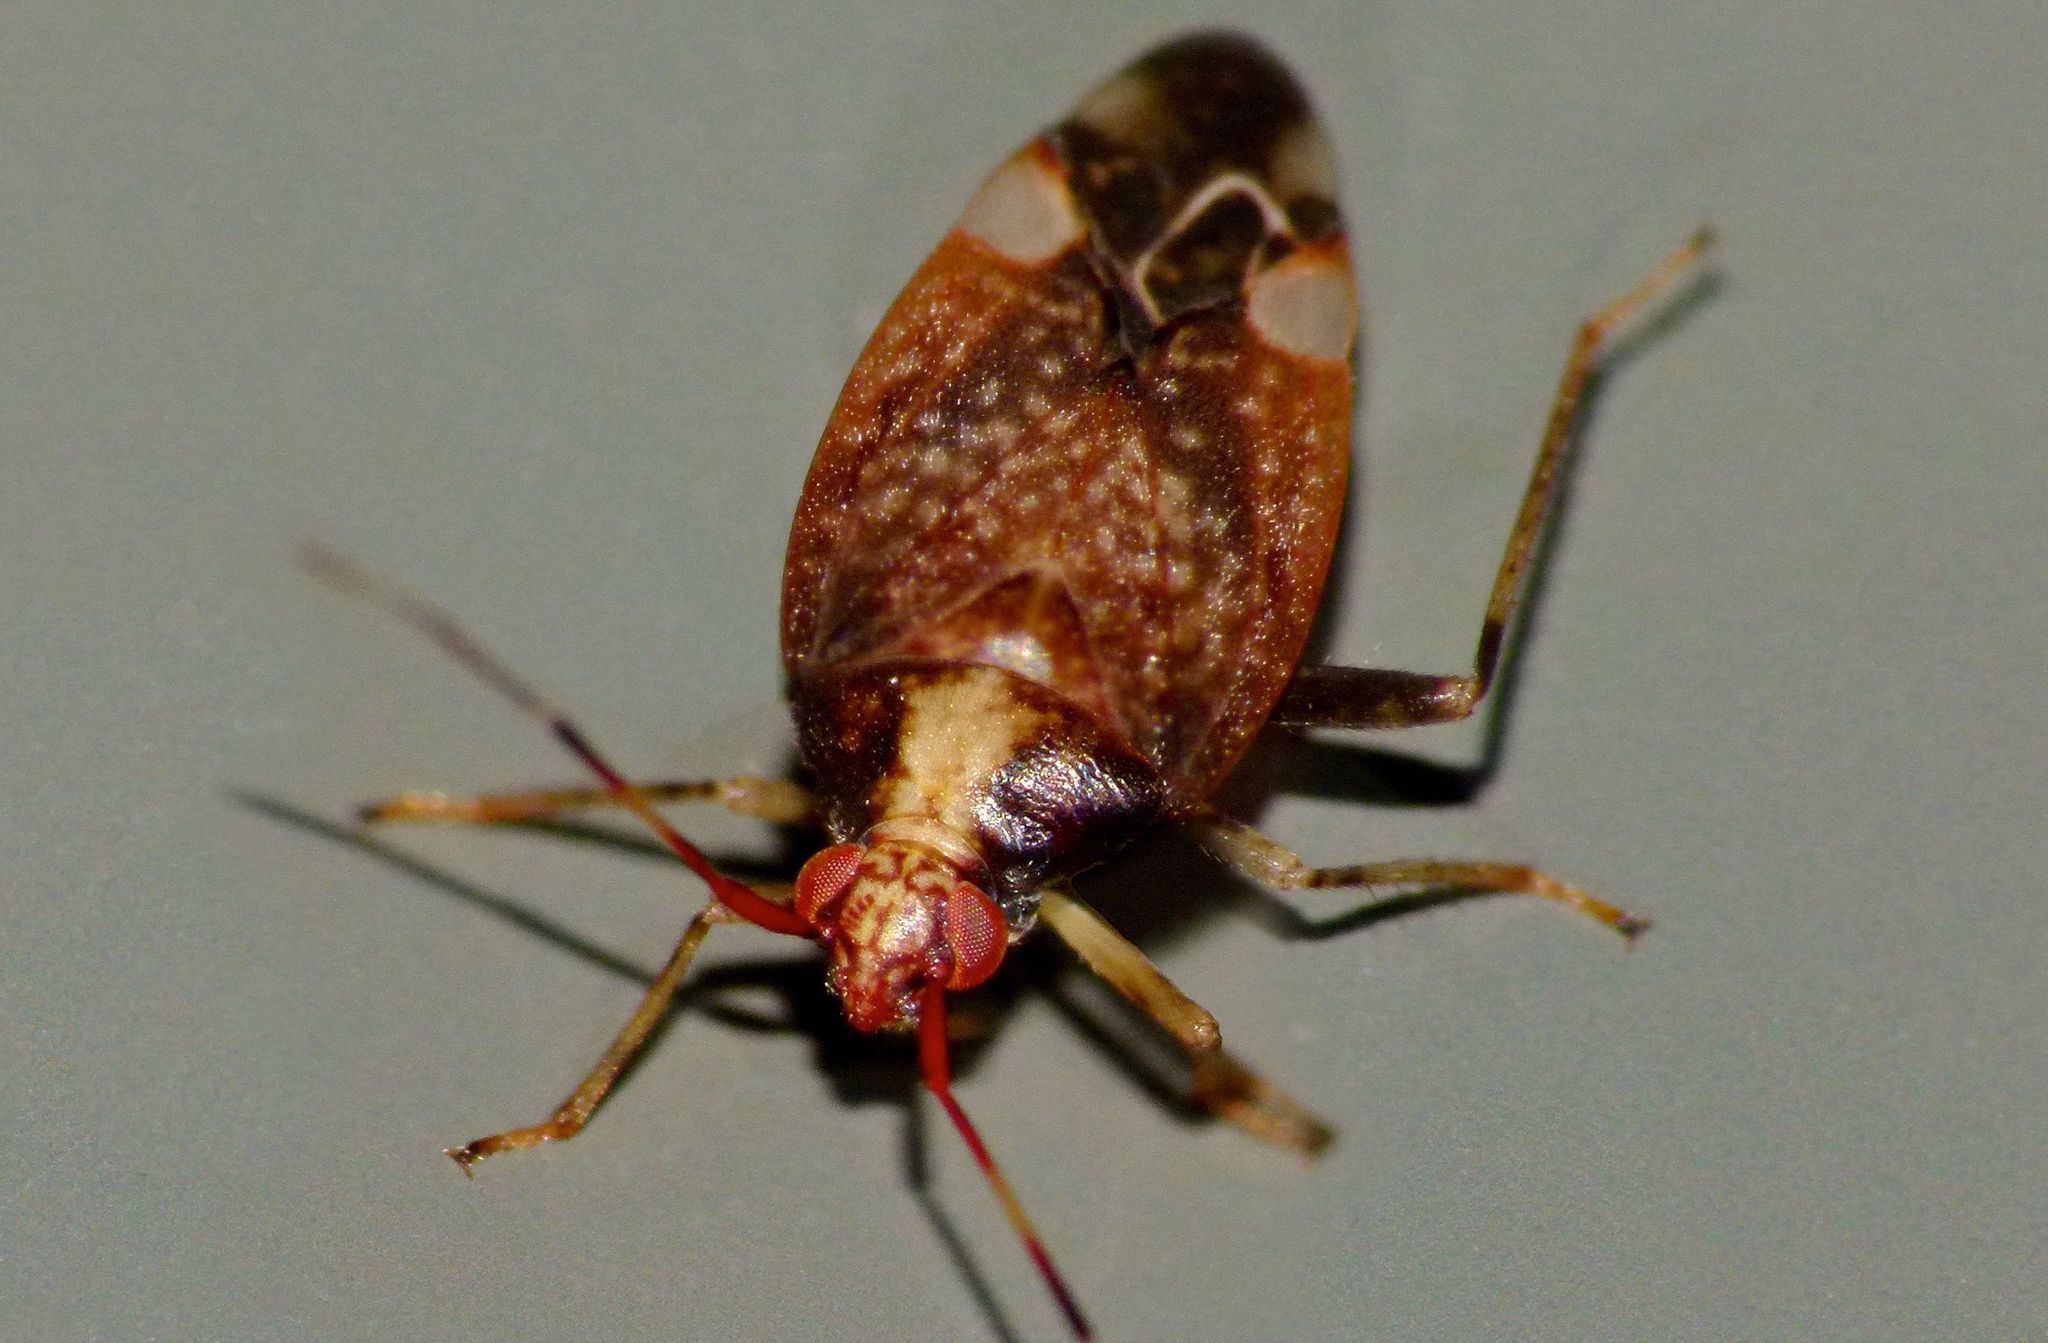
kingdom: Animalia
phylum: Arthropoda
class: Insecta
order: Hemiptera
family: Miridae
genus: Chinamiris
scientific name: Chinamiris indeclivis
